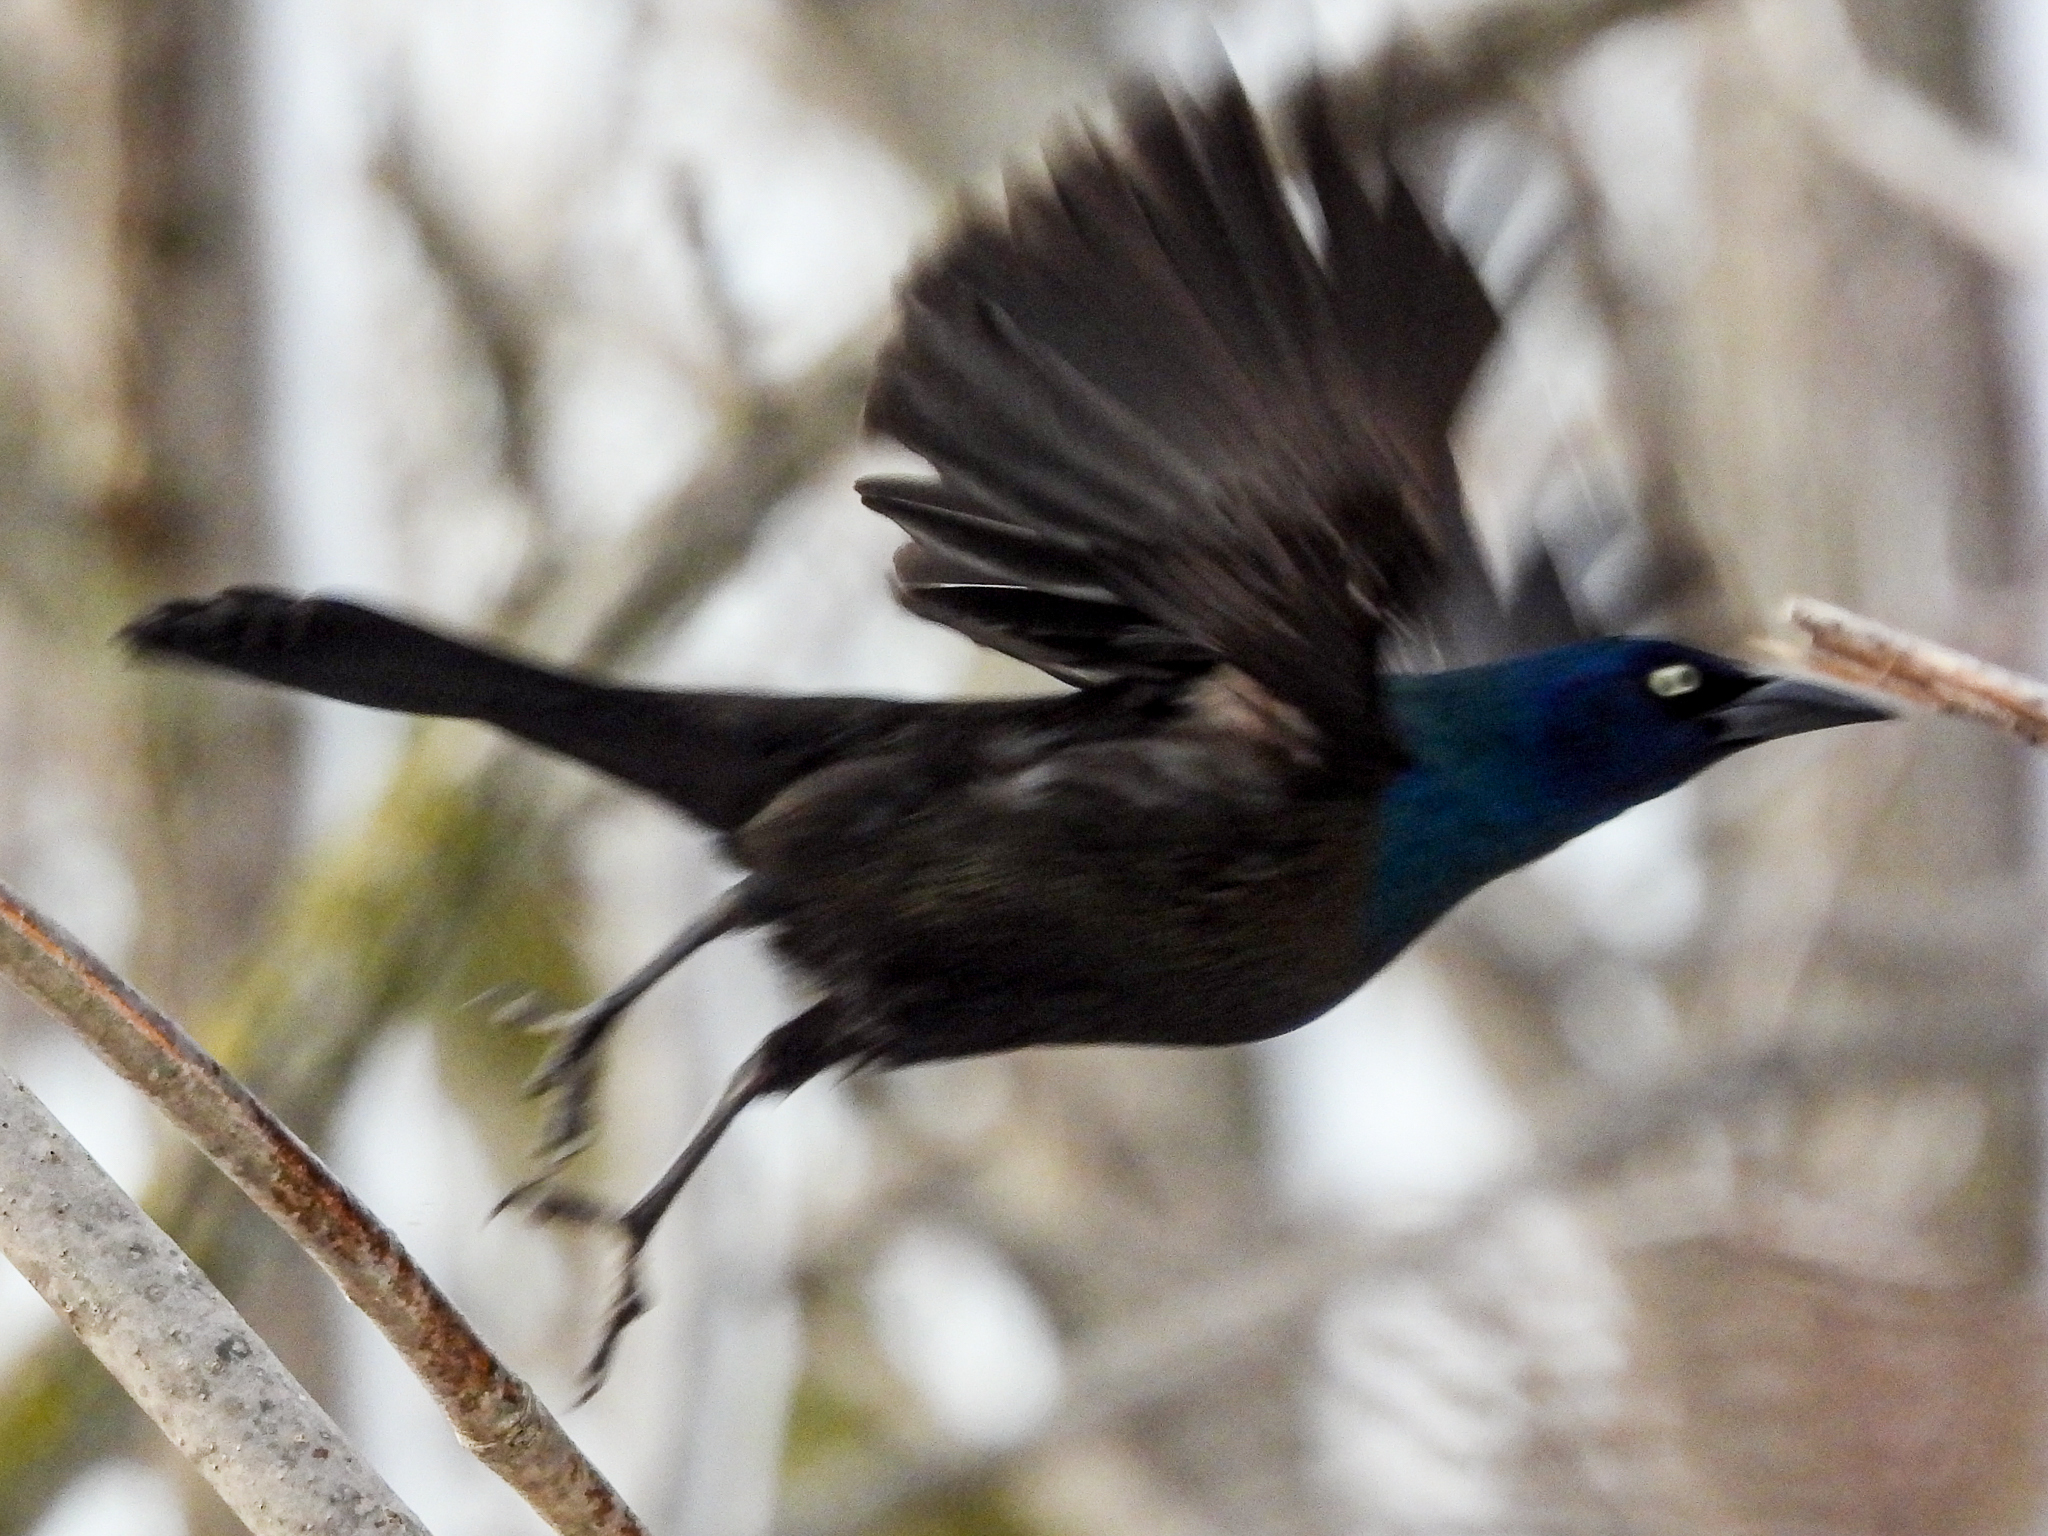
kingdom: Animalia
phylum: Chordata
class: Aves
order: Passeriformes
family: Icteridae
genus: Quiscalus
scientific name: Quiscalus quiscula
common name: Common grackle
